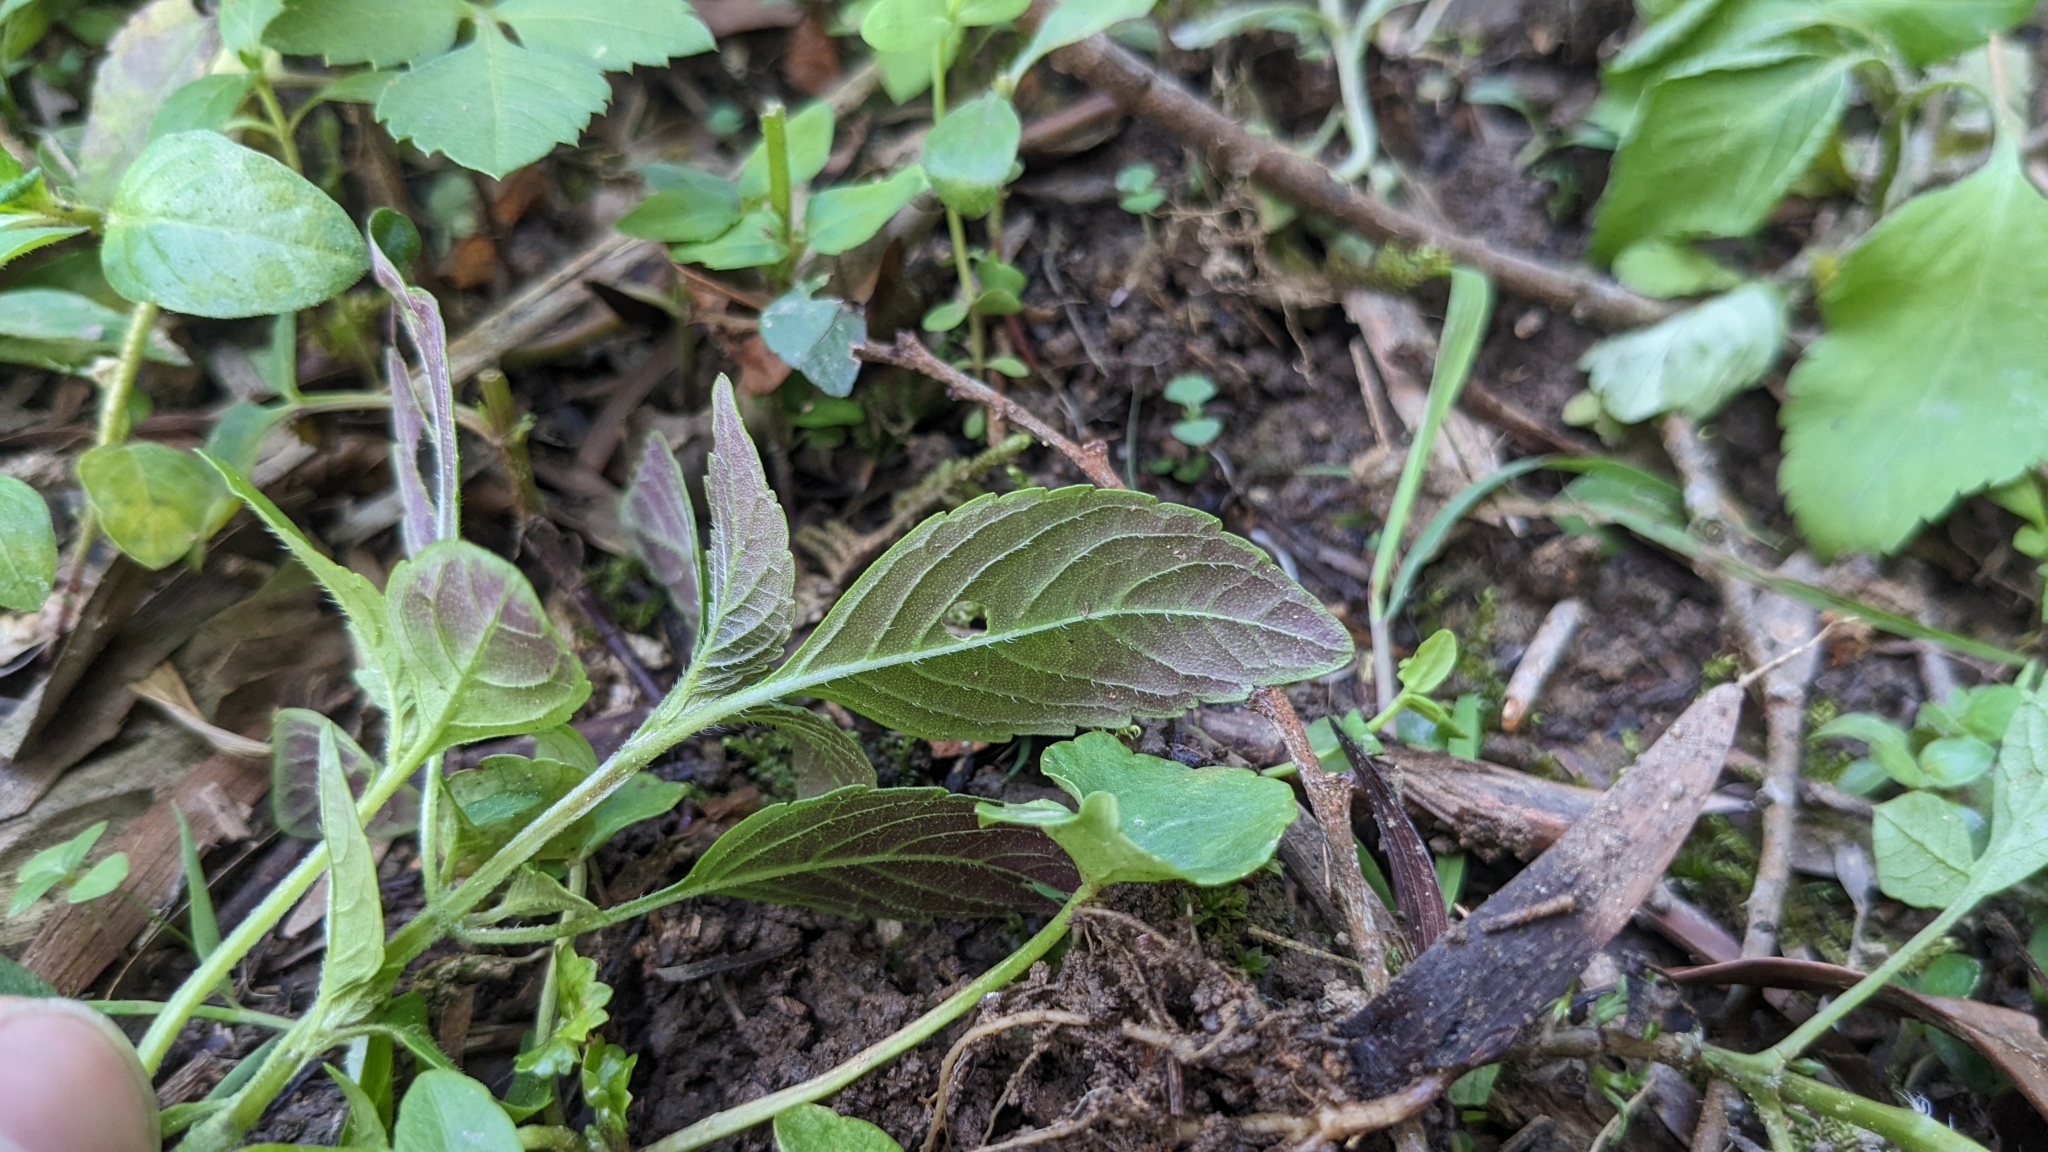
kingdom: Plantae
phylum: Tracheophyta
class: Magnoliopsida
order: Lamiales
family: Lamiaceae
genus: Mosla
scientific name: Mosla scabra
